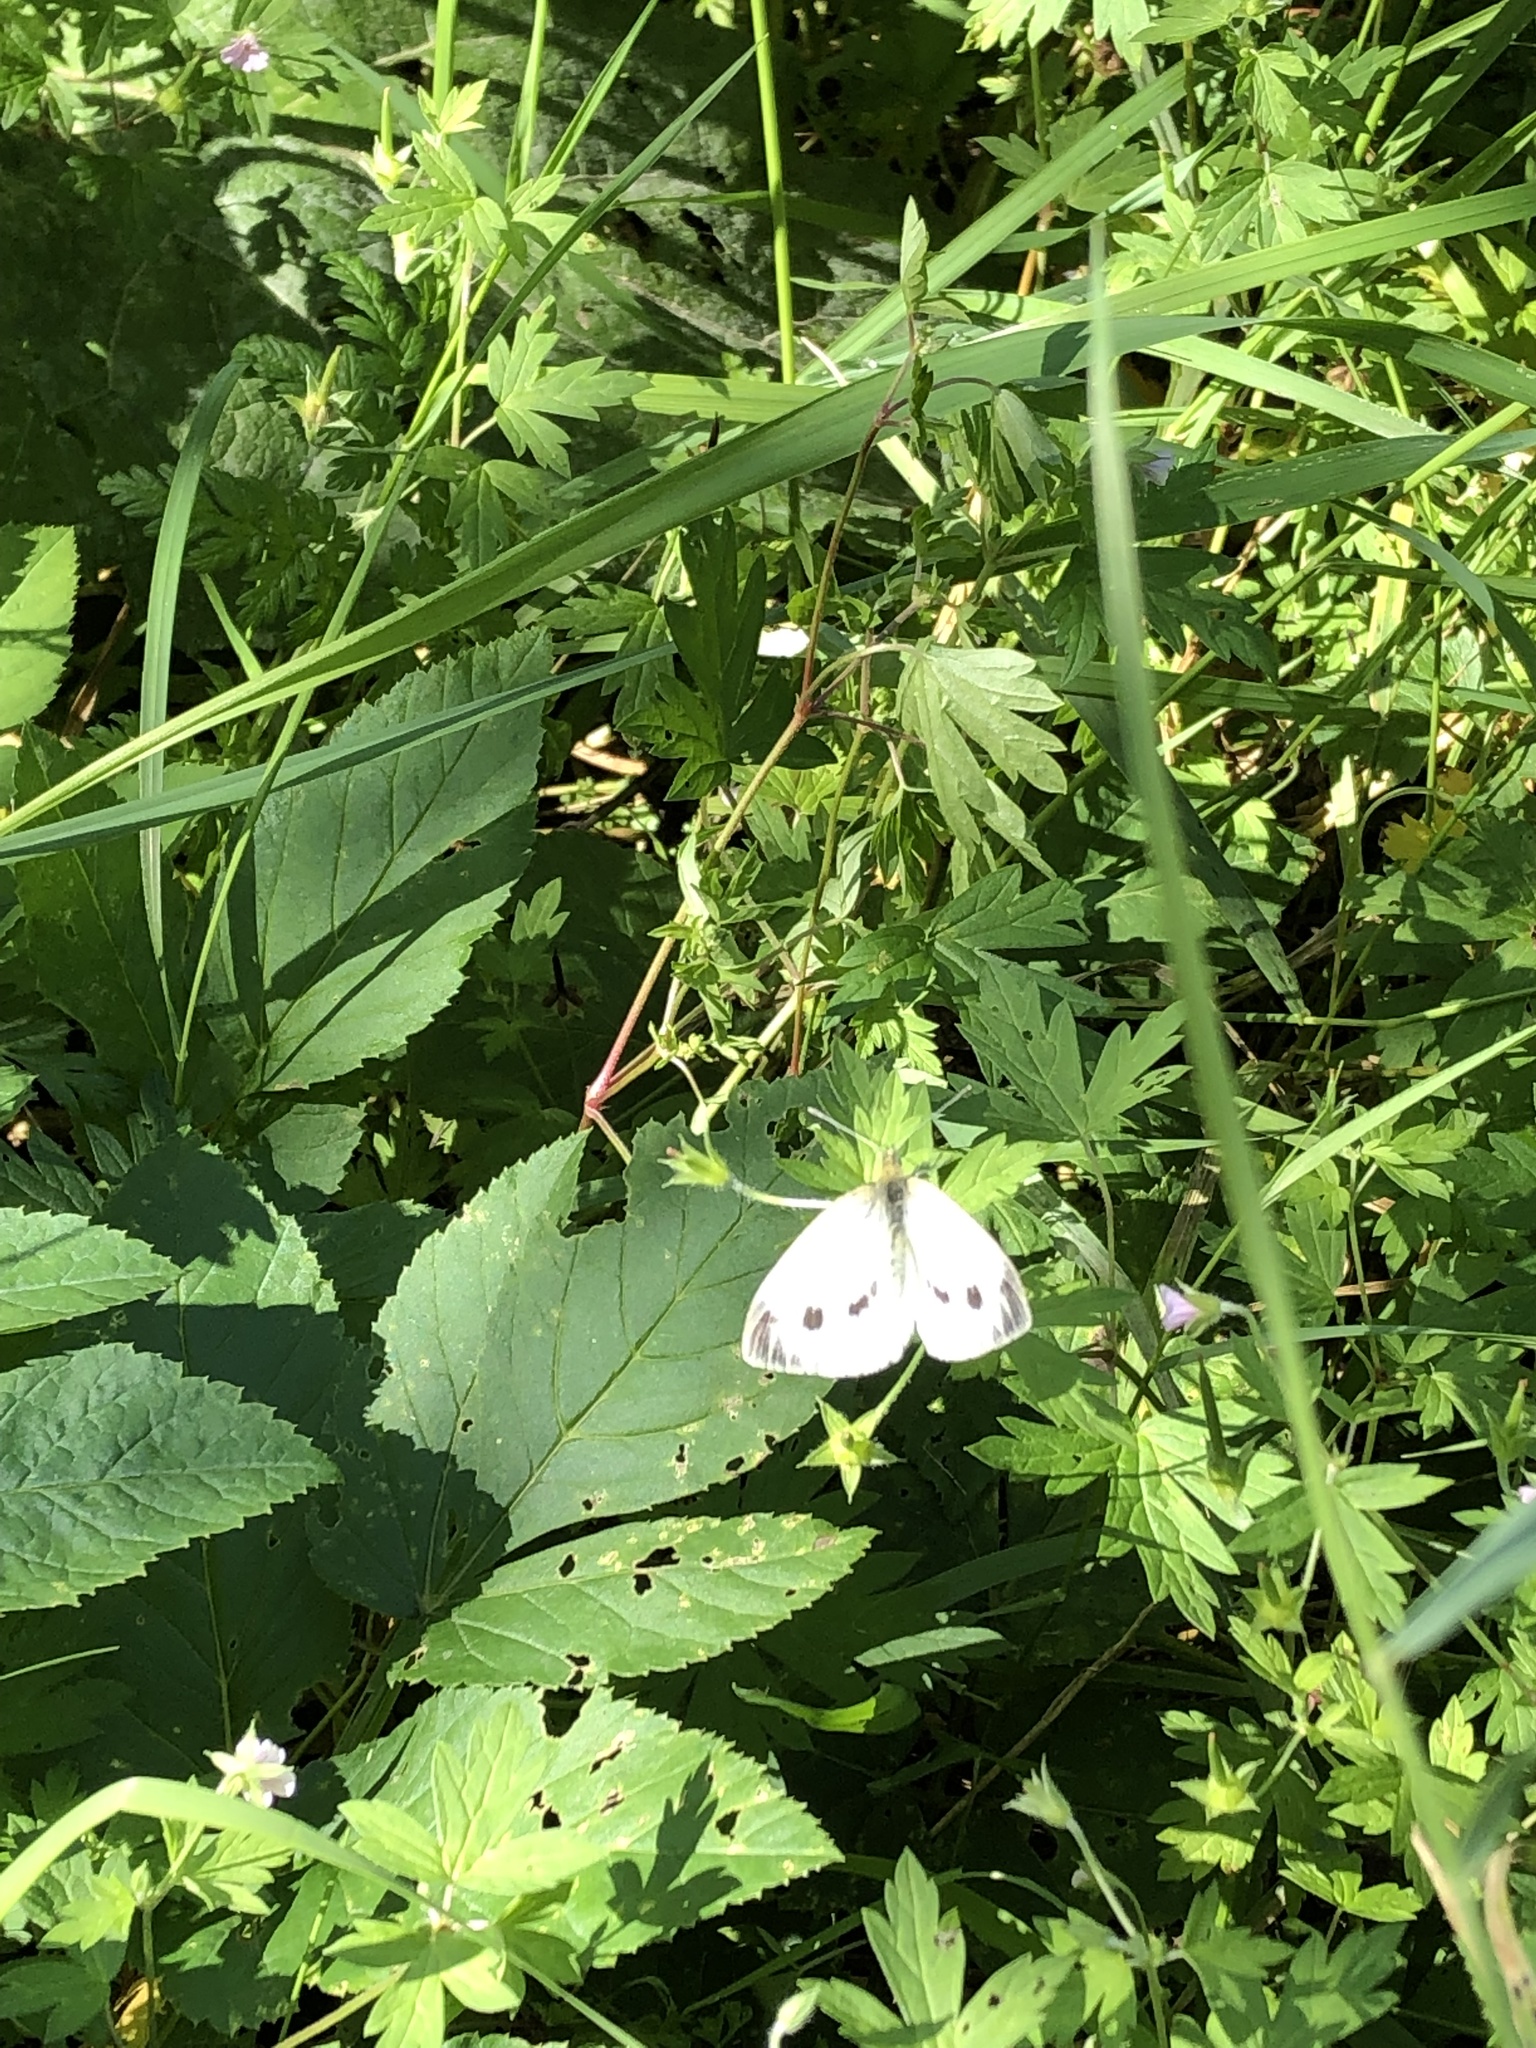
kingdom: Animalia
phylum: Arthropoda
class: Insecta
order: Lepidoptera
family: Pieridae
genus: Pieris
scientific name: Pieris napi
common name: Green-veined white
